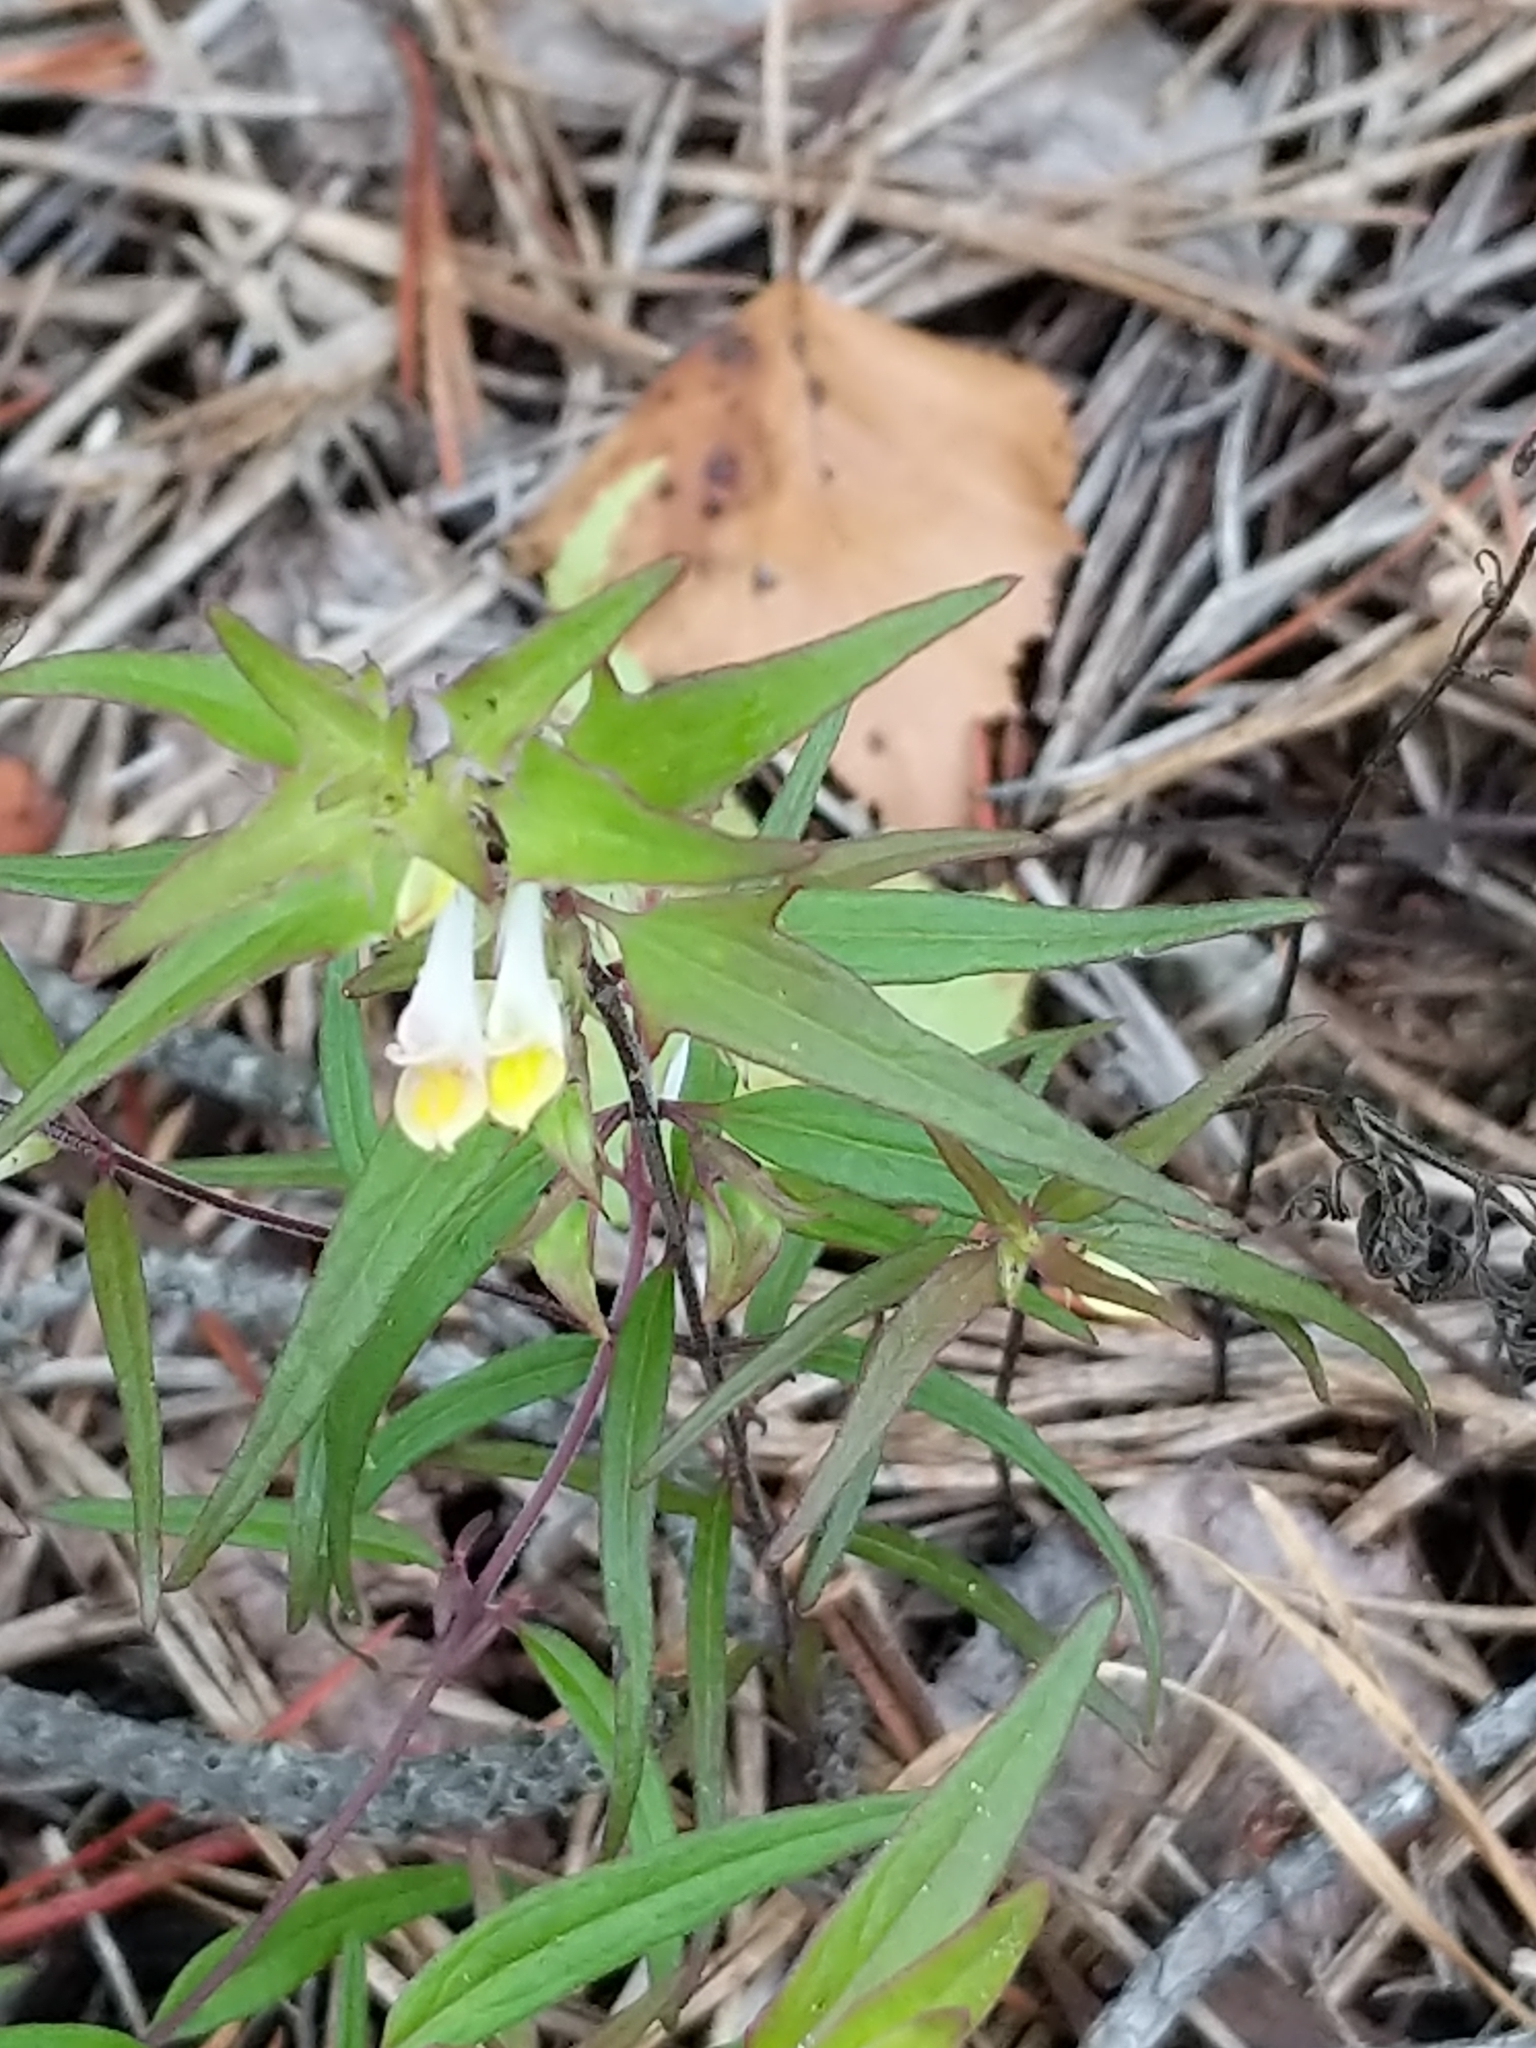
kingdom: Plantae
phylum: Tracheophyta
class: Magnoliopsida
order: Lamiales
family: Orobanchaceae
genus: Melampyrum
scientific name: Melampyrum lineare
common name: American cow-wheat
